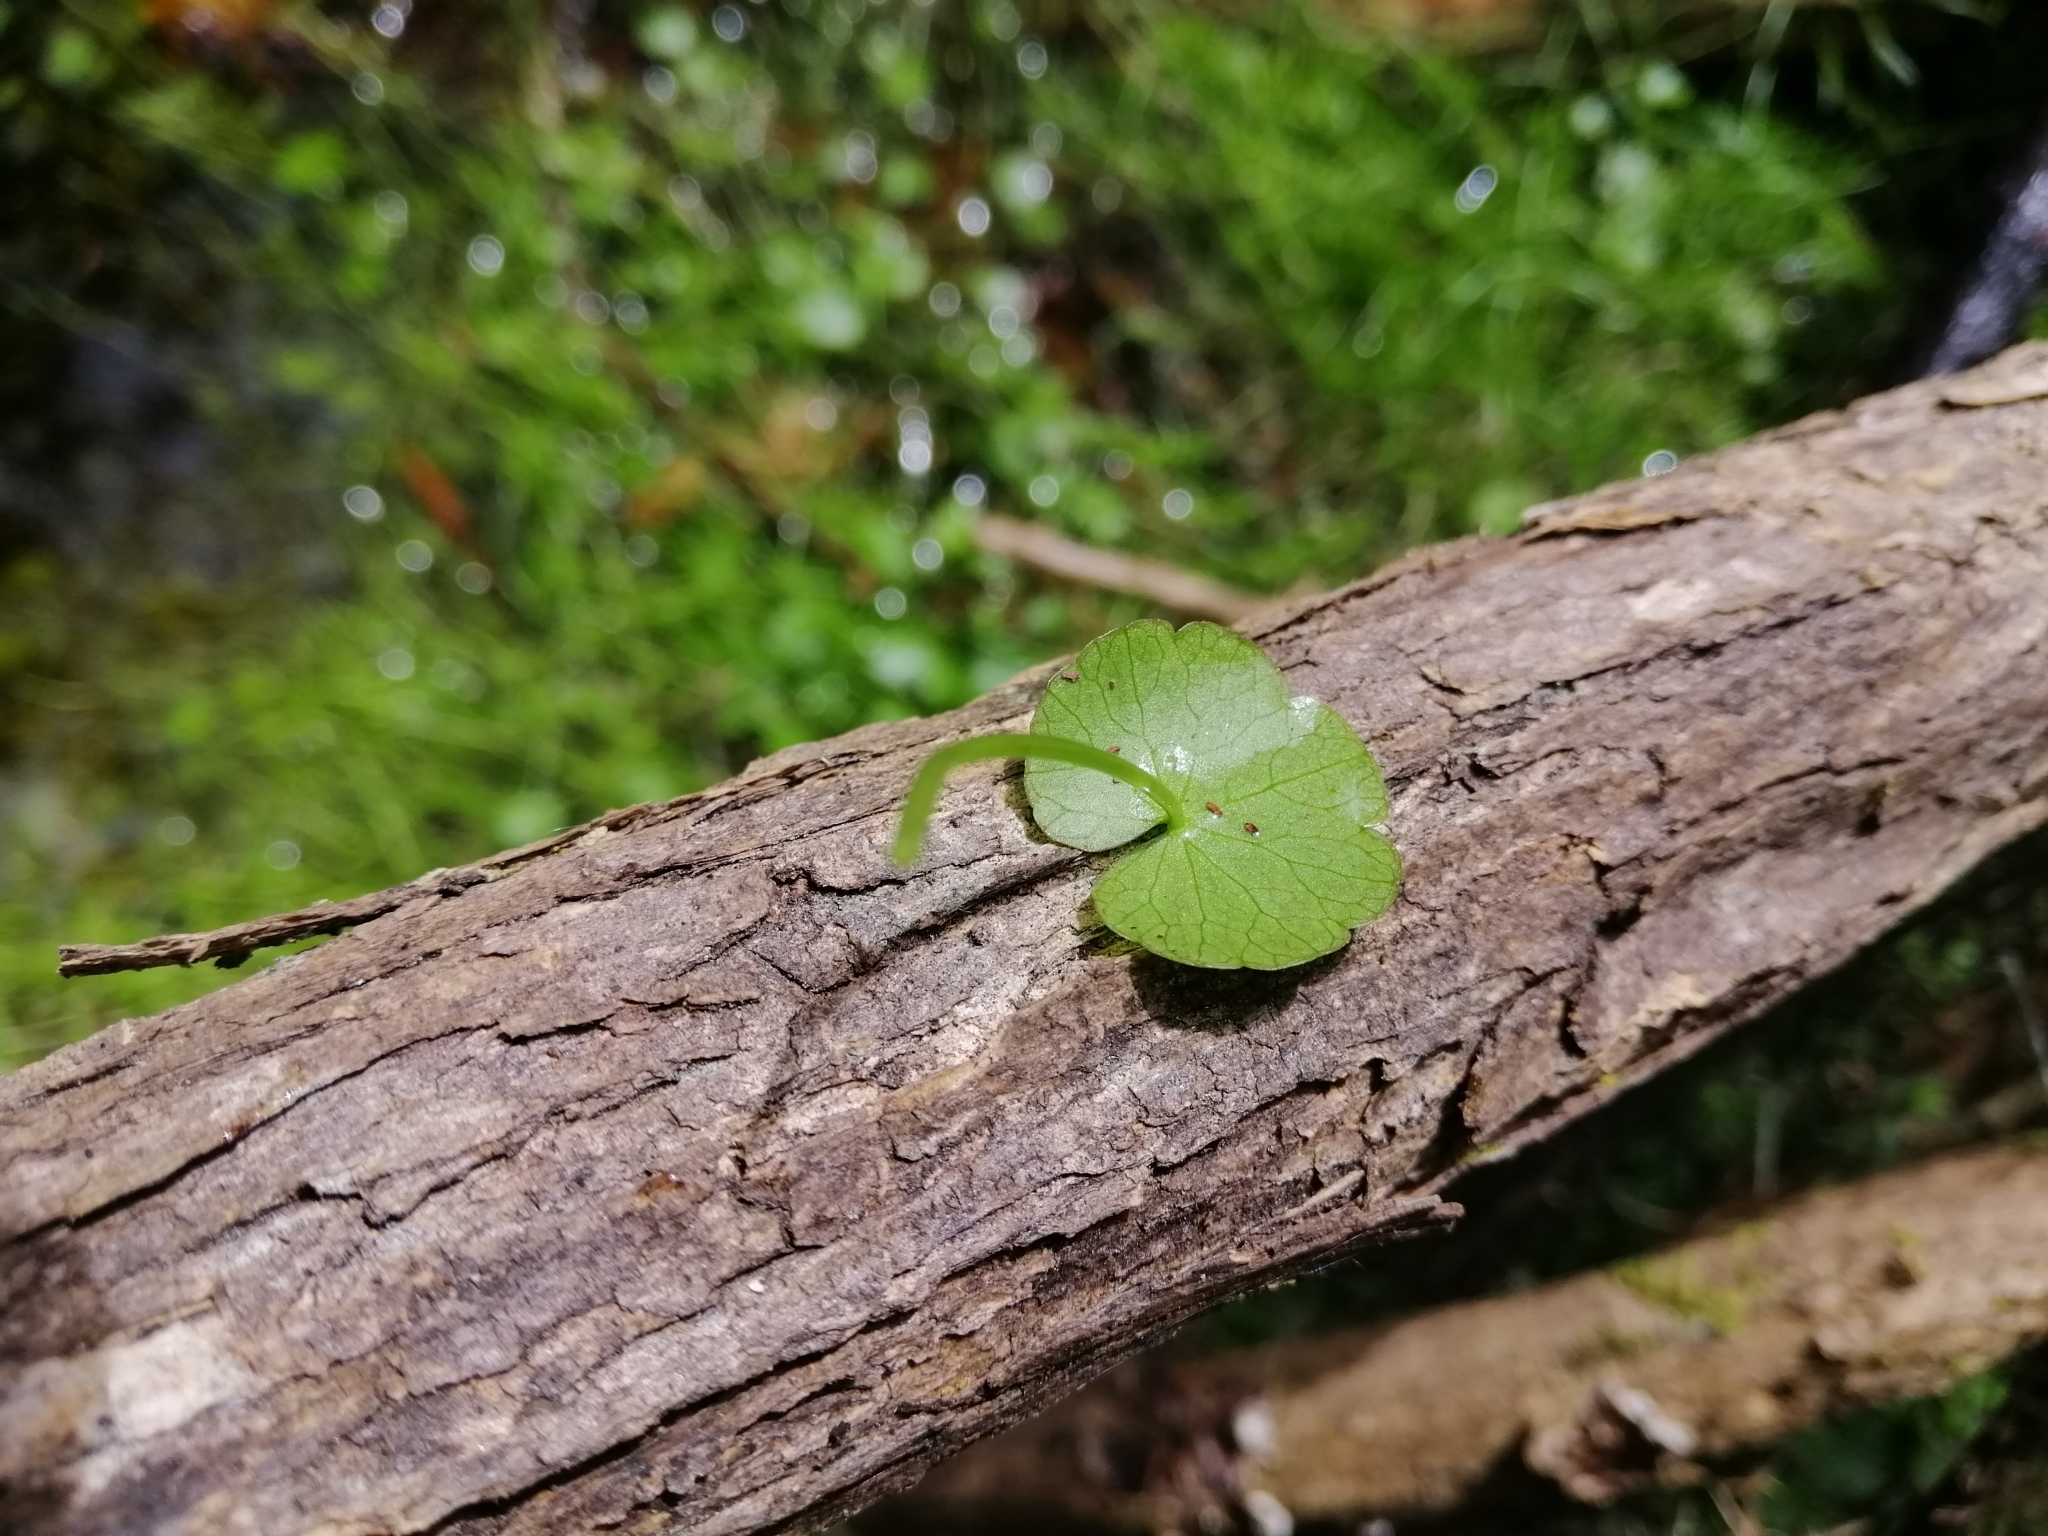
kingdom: Plantae
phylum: Tracheophyta
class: Magnoliopsida
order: Apiales
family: Araliaceae
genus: Hydrocotyle
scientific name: Hydrocotyle heteromeria
